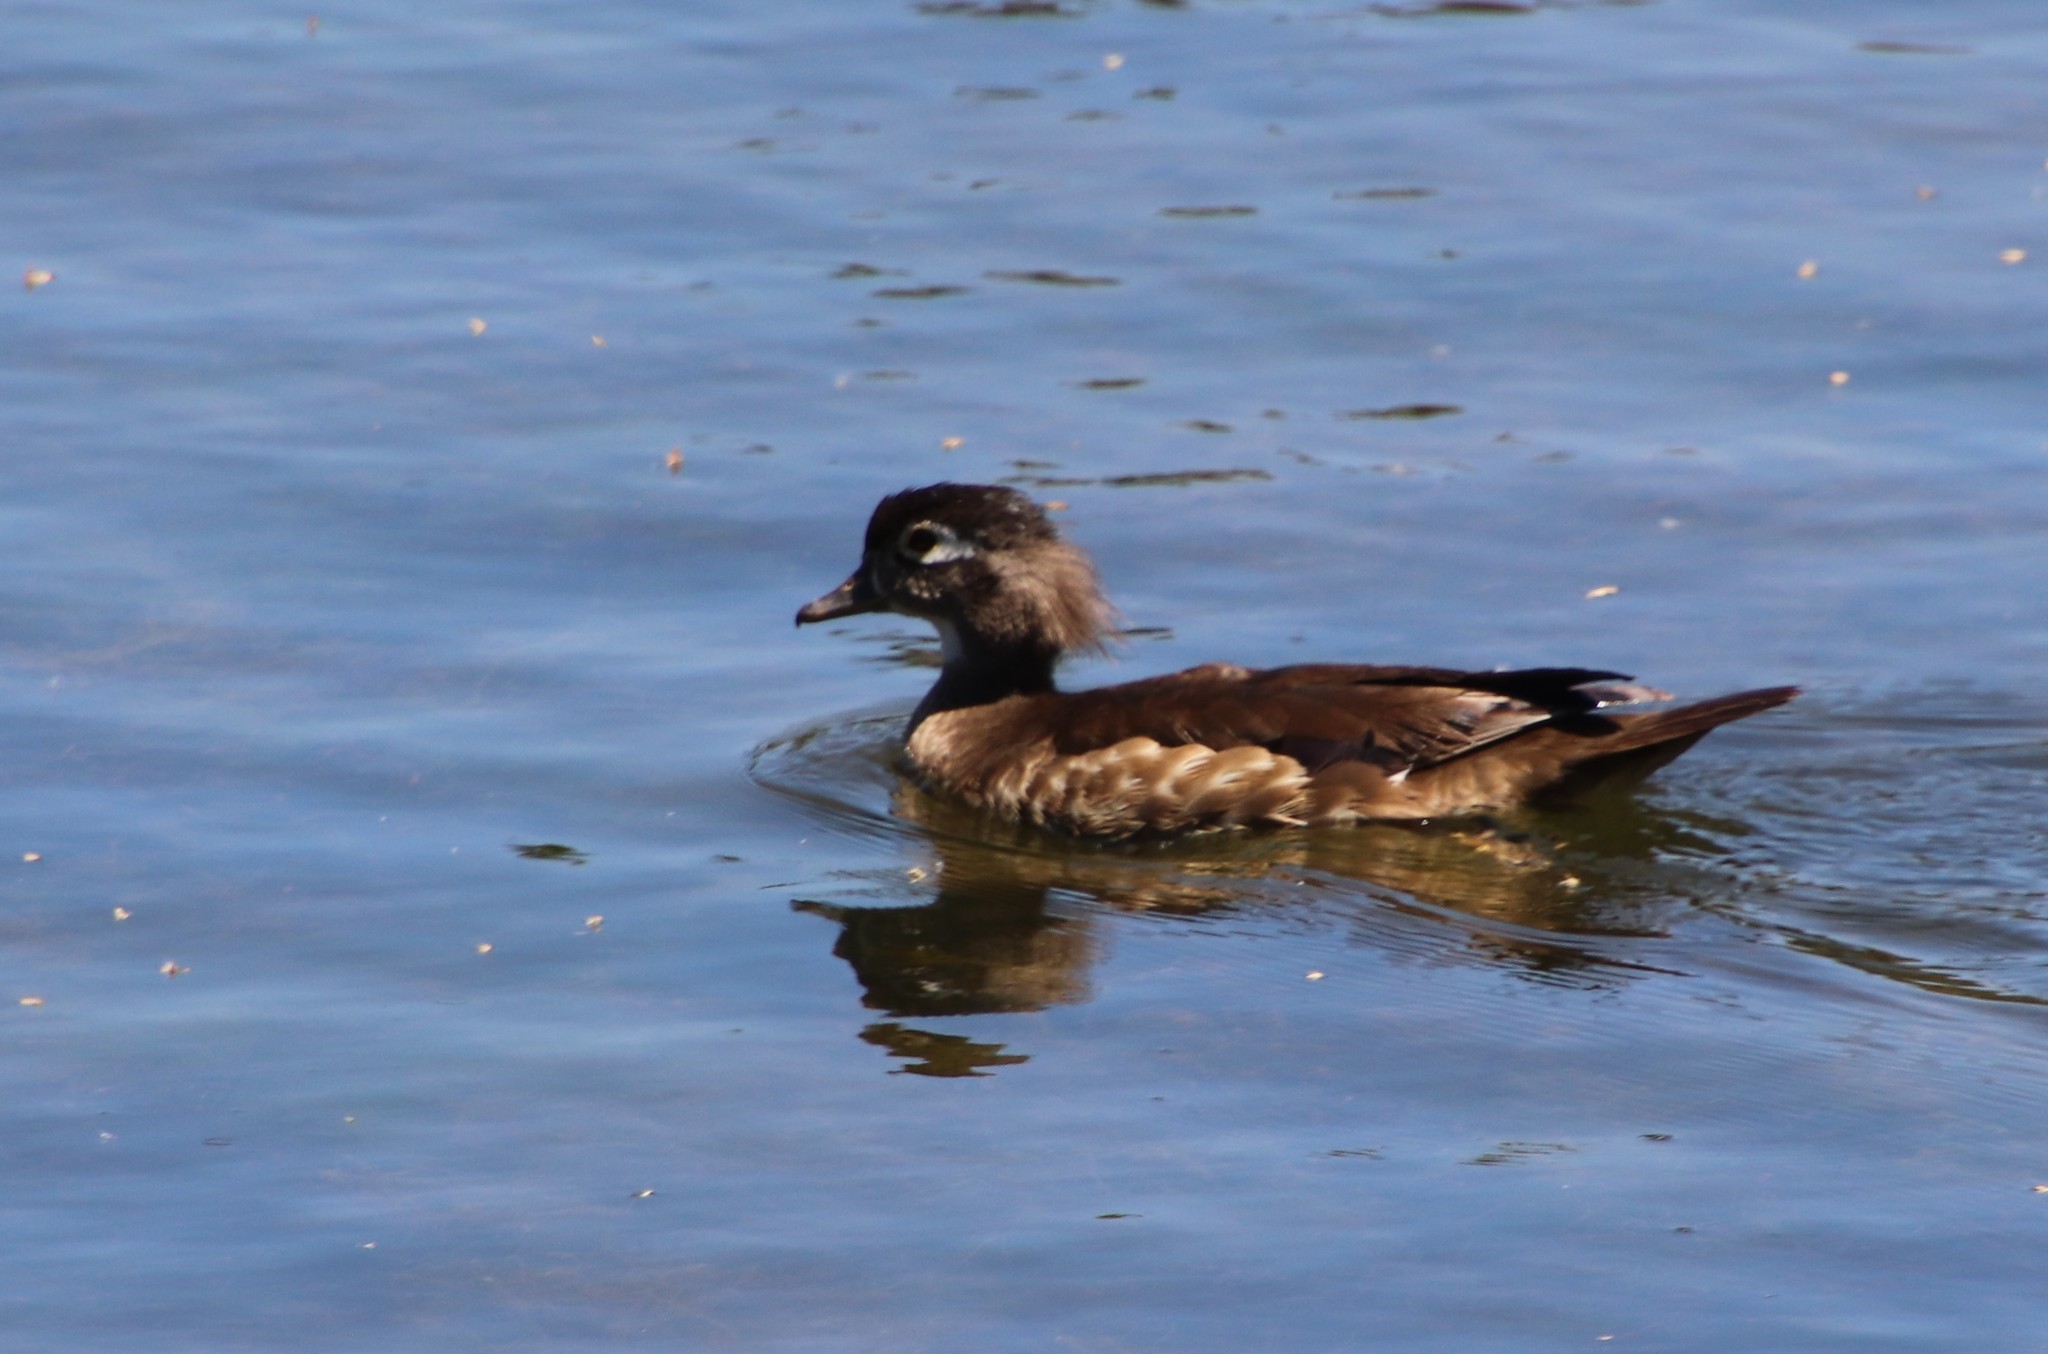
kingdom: Animalia
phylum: Chordata
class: Aves
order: Anseriformes
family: Anatidae
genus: Aix
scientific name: Aix sponsa
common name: Wood duck
